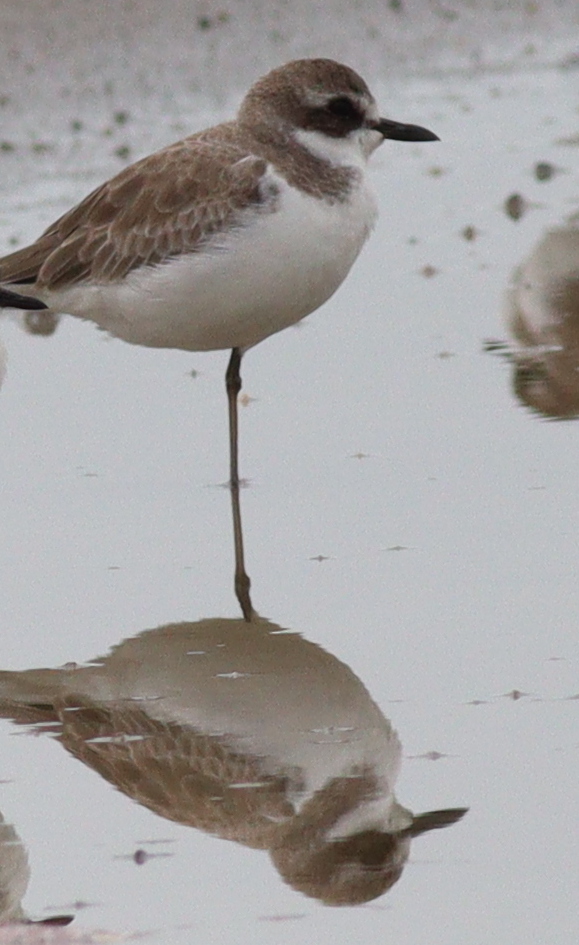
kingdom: Animalia
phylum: Chordata
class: Aves
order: Charadriiformes
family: Charadriidae
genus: Charadrius
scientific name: Charadrius leschenaultii
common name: Greater sand plover
